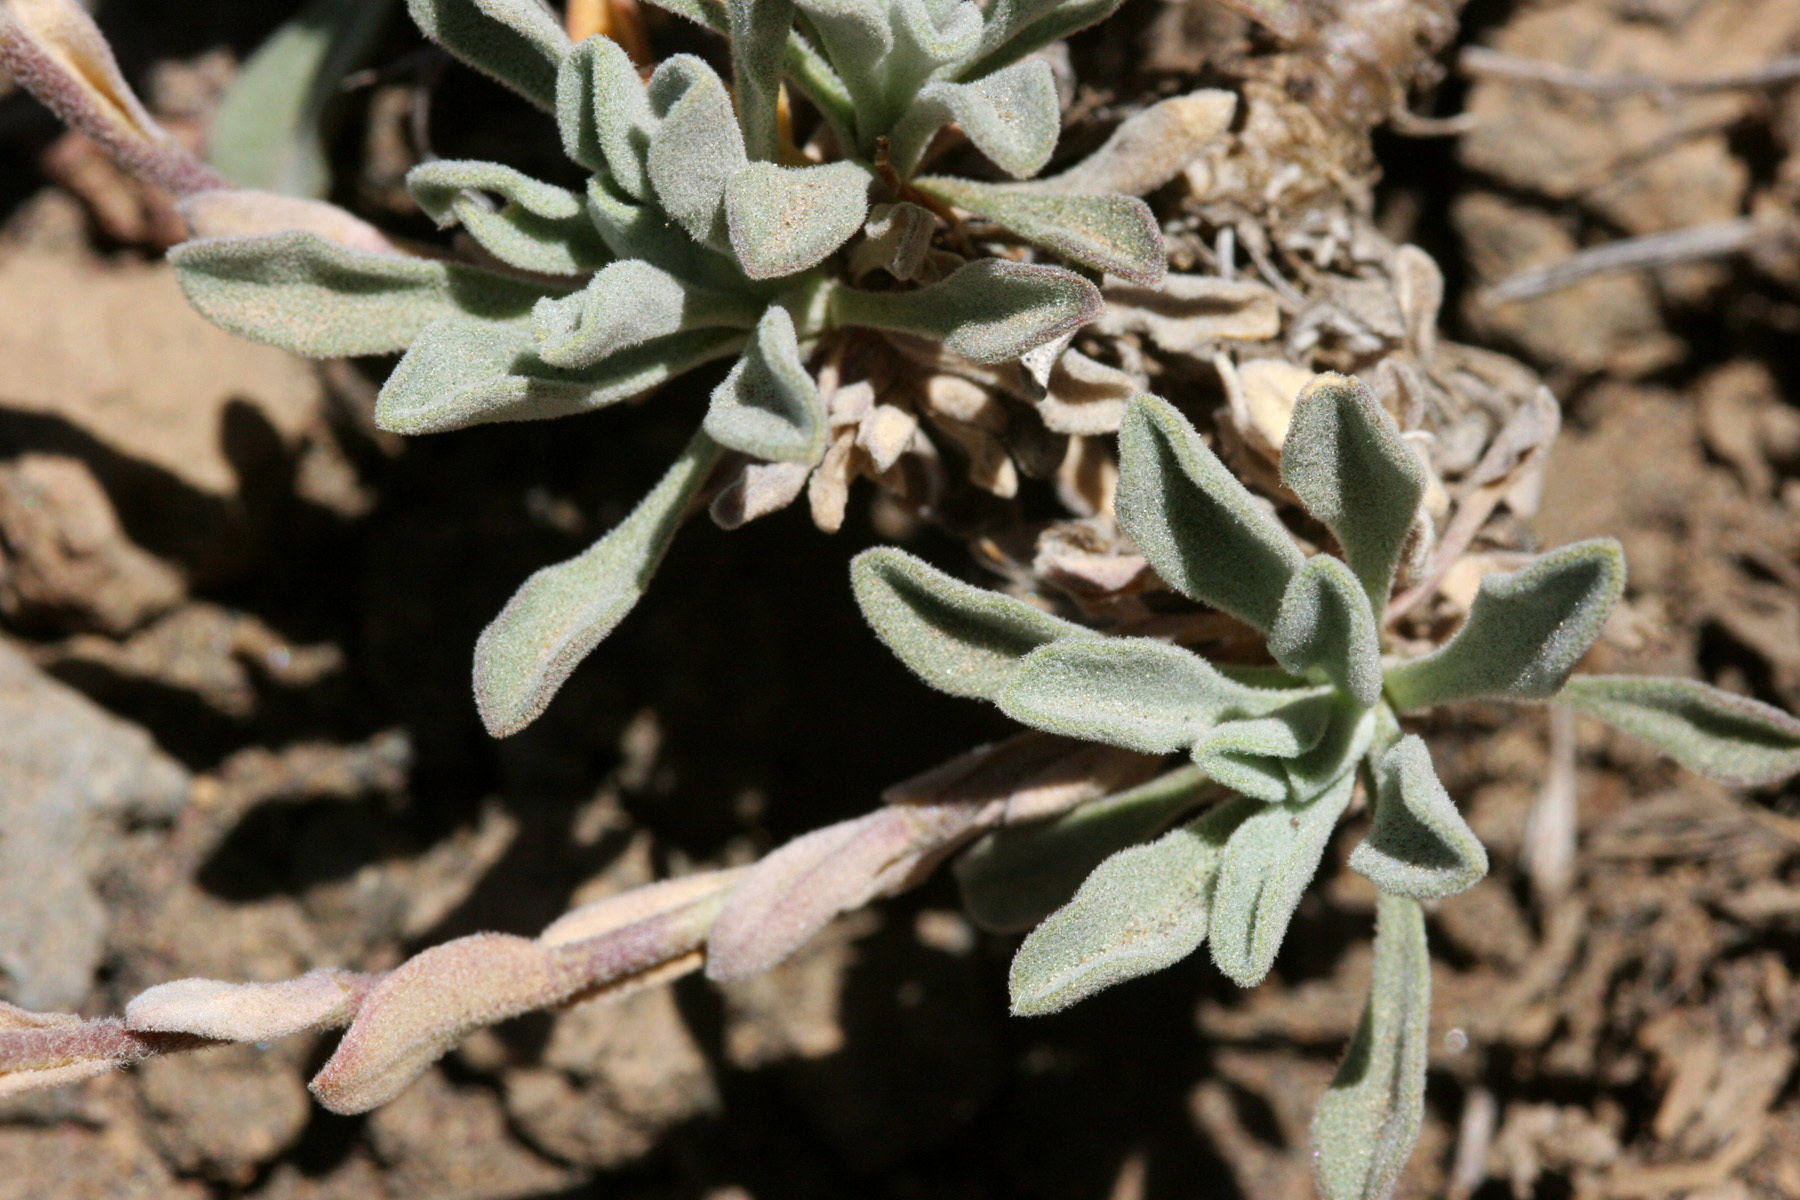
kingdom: Plantae
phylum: Tracheophyta
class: Magnoliopsida
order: Brassicales
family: Brassicaceae
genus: Boechera
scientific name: Boechera lemmonii
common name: Lemmon's rockcress
